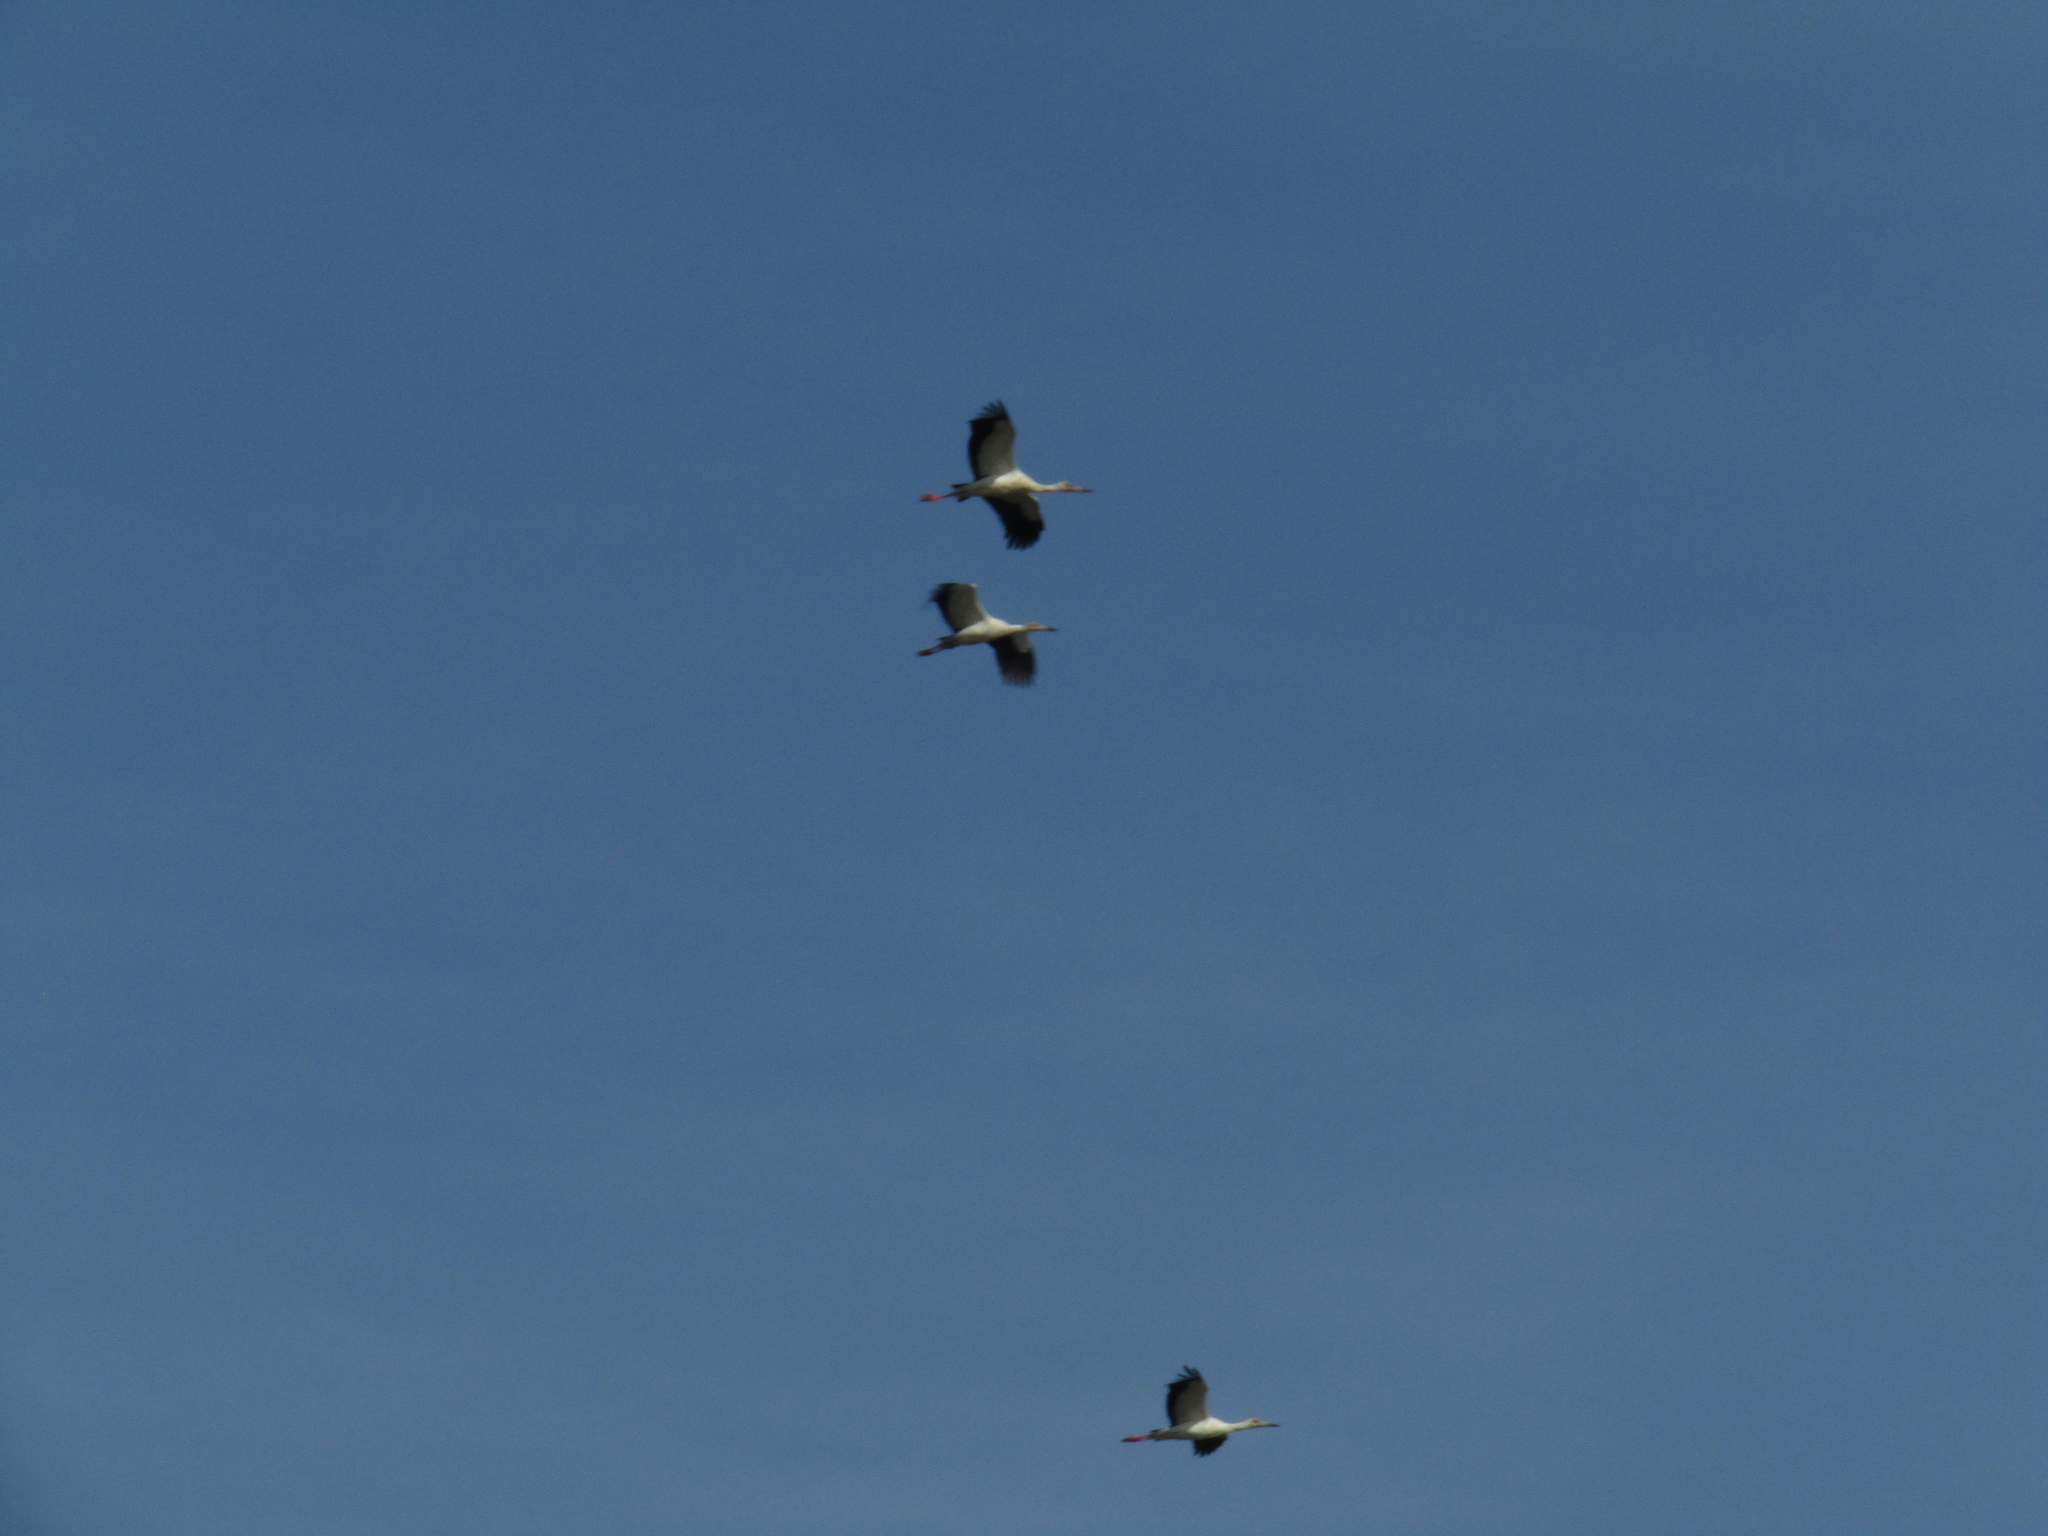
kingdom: Animalia
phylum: Chordata
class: Aves
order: Ciconiiformes
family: Ciconiidae
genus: Ciconia
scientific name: Ciconia maguari
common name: Maguari stork
